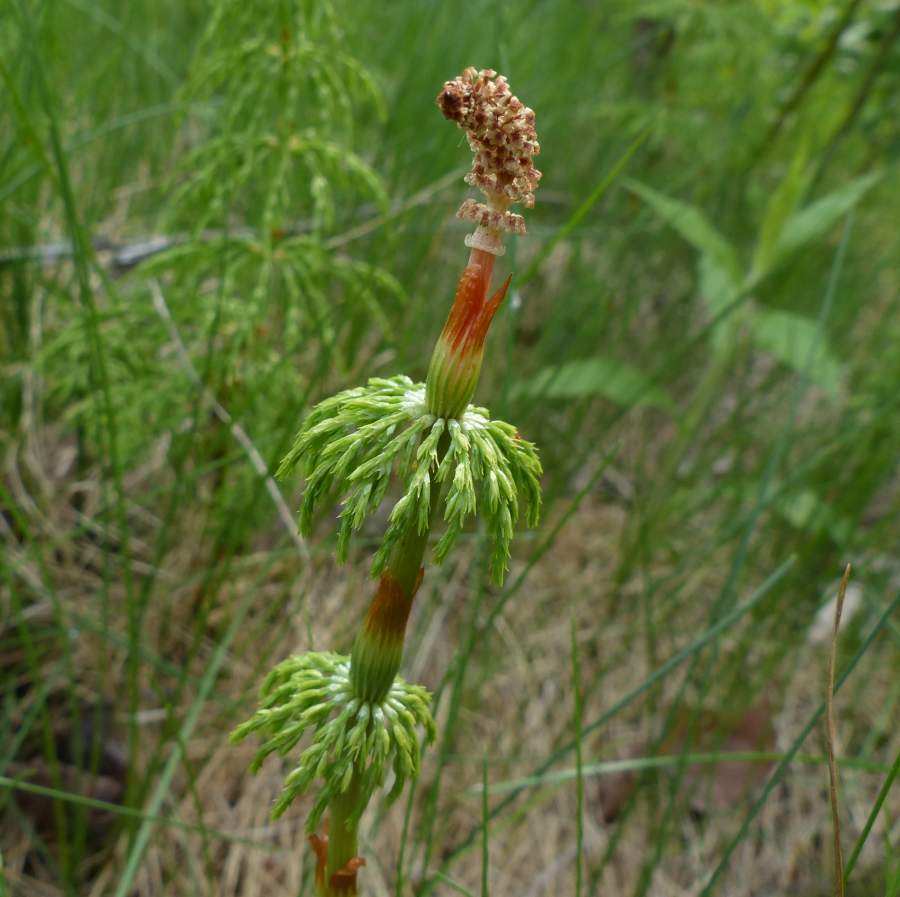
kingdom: Plantae
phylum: Tracheophyta
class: Polypodiopsida
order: Equisetales
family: Equisetaceae
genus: Equisetum
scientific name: Equisetum sylvaticum
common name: Wood horsetail
